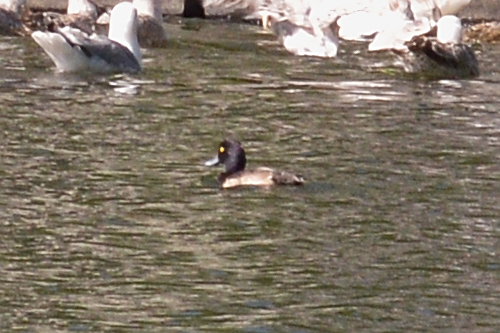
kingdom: Animalia
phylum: Chordata
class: Aves
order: Anseriformes
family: Anatidae
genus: Aythya
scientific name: Aythya fuligula
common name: Tufted duck
